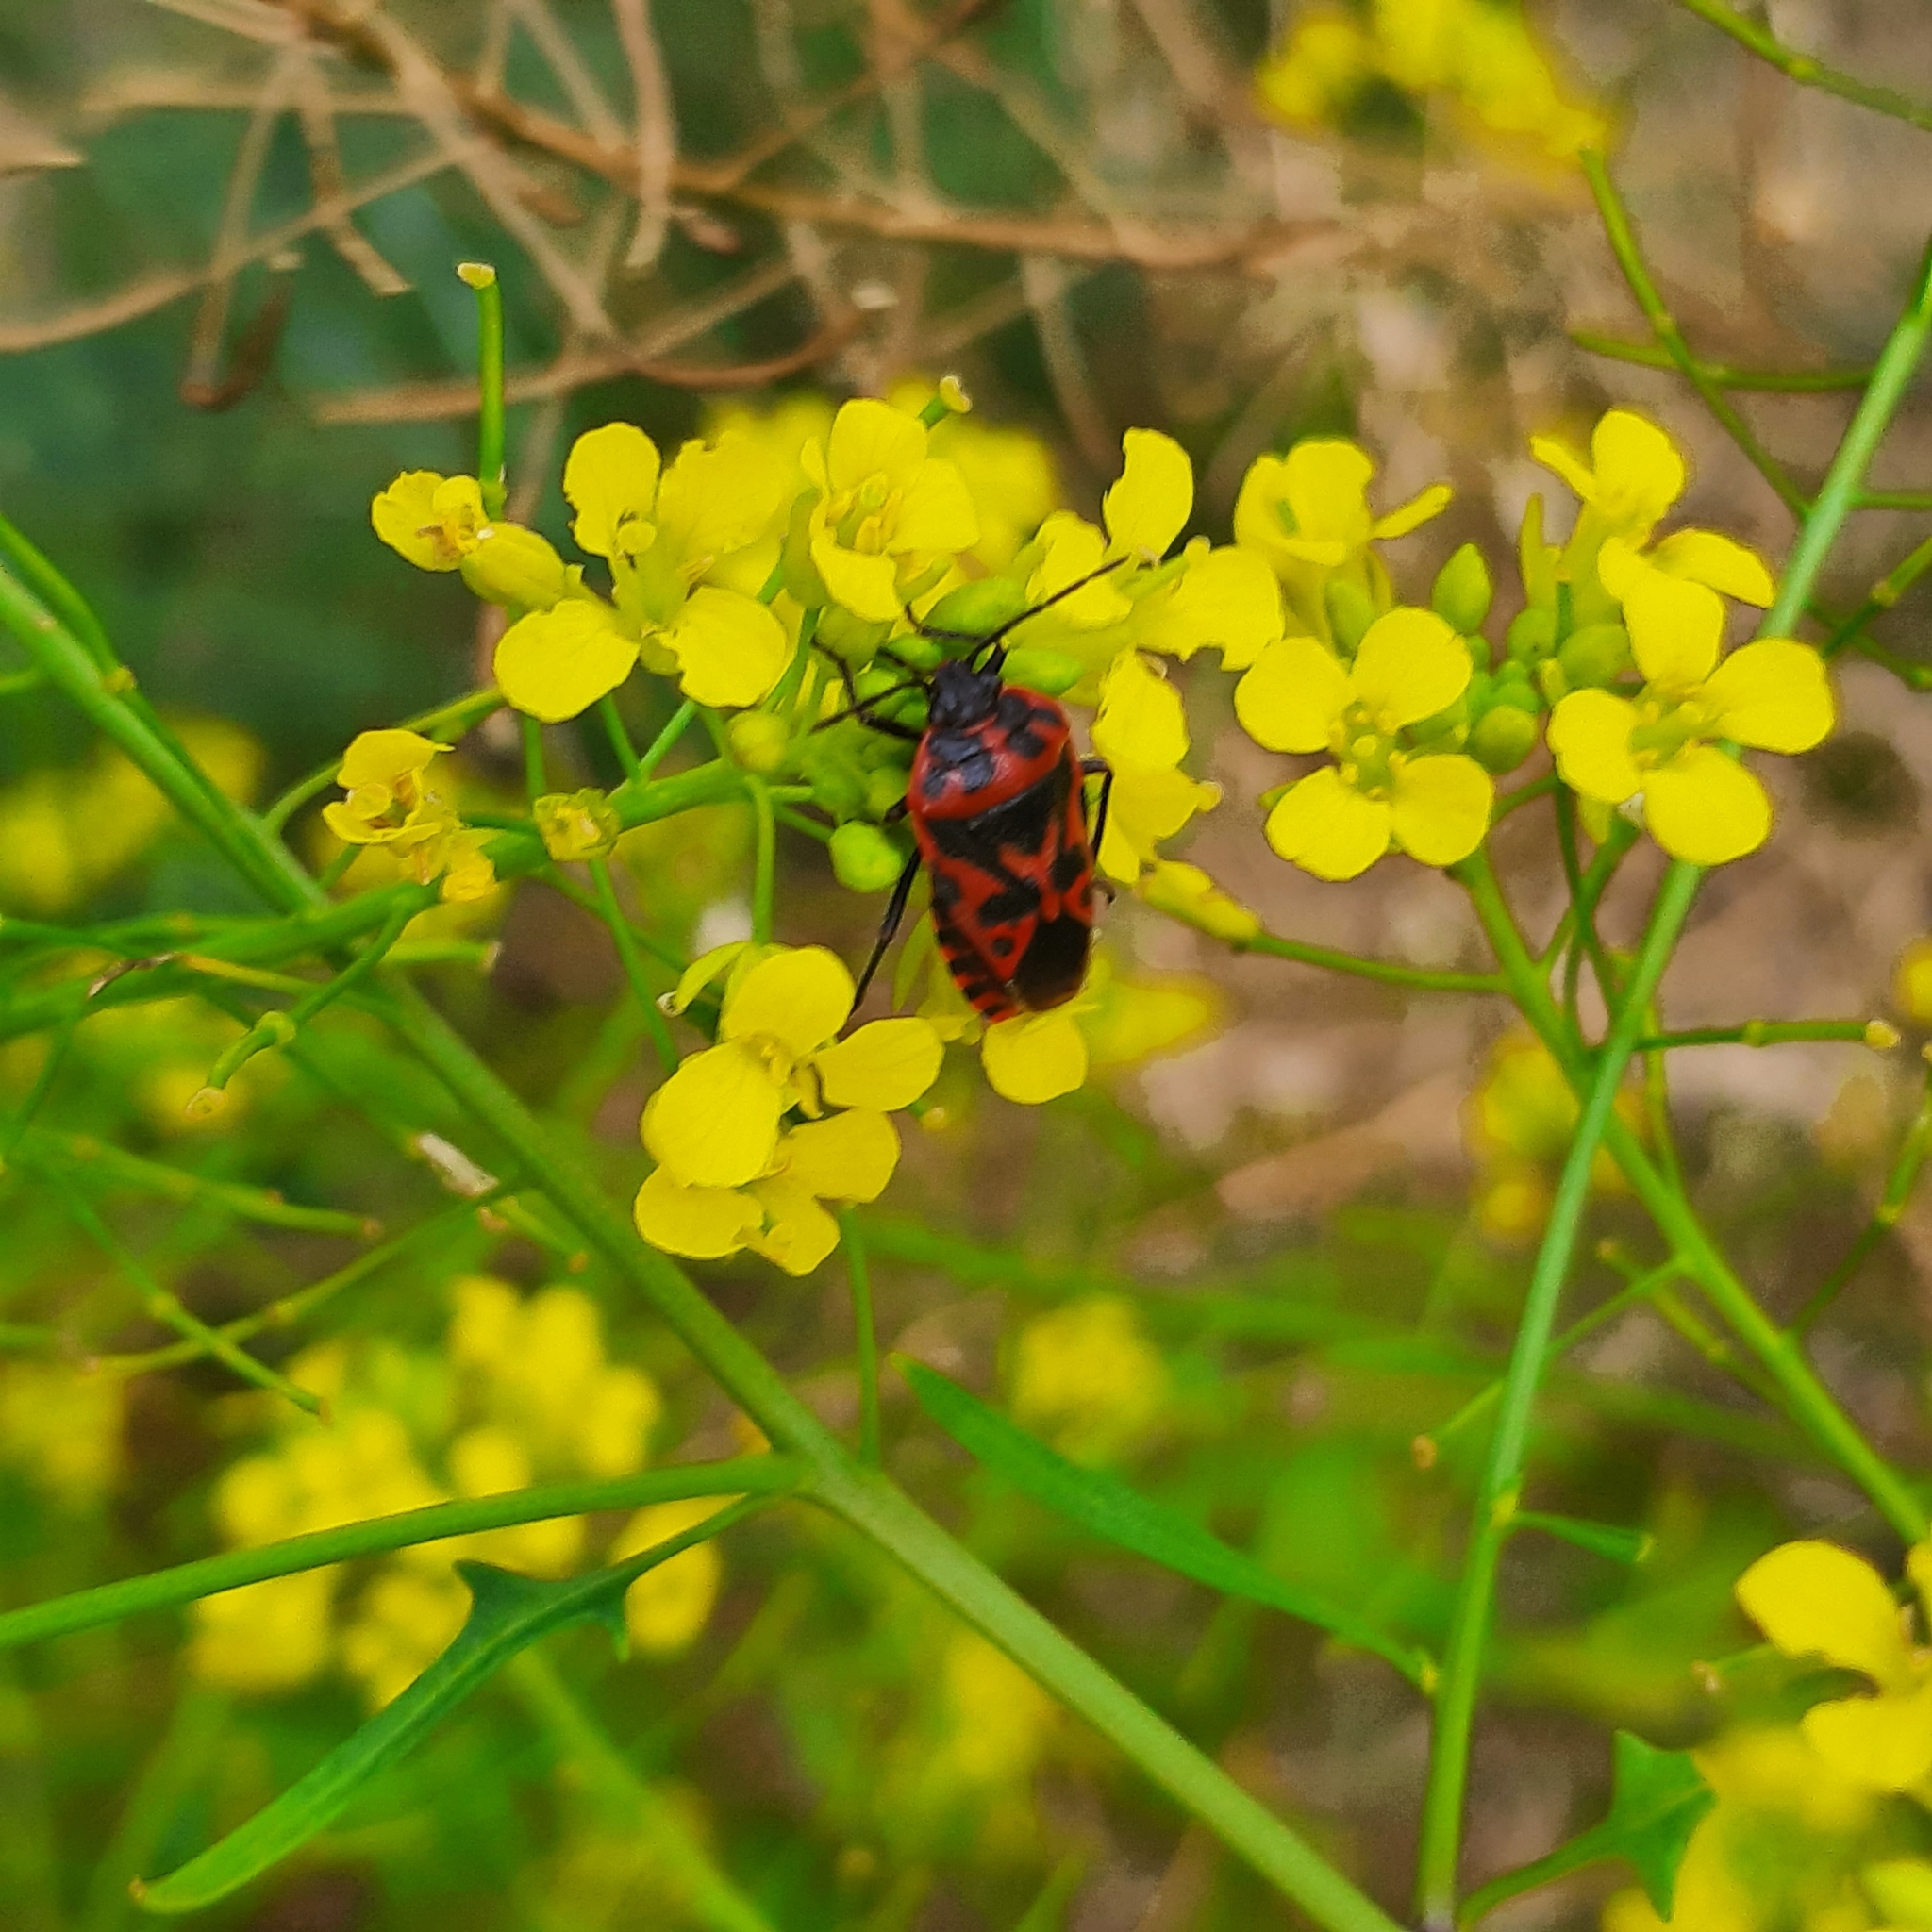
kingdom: Animalia
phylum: Arthropoda
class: Insecta
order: Hemiptera
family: Pentatomidae
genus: Eurydema
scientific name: Eurydema ventralis
